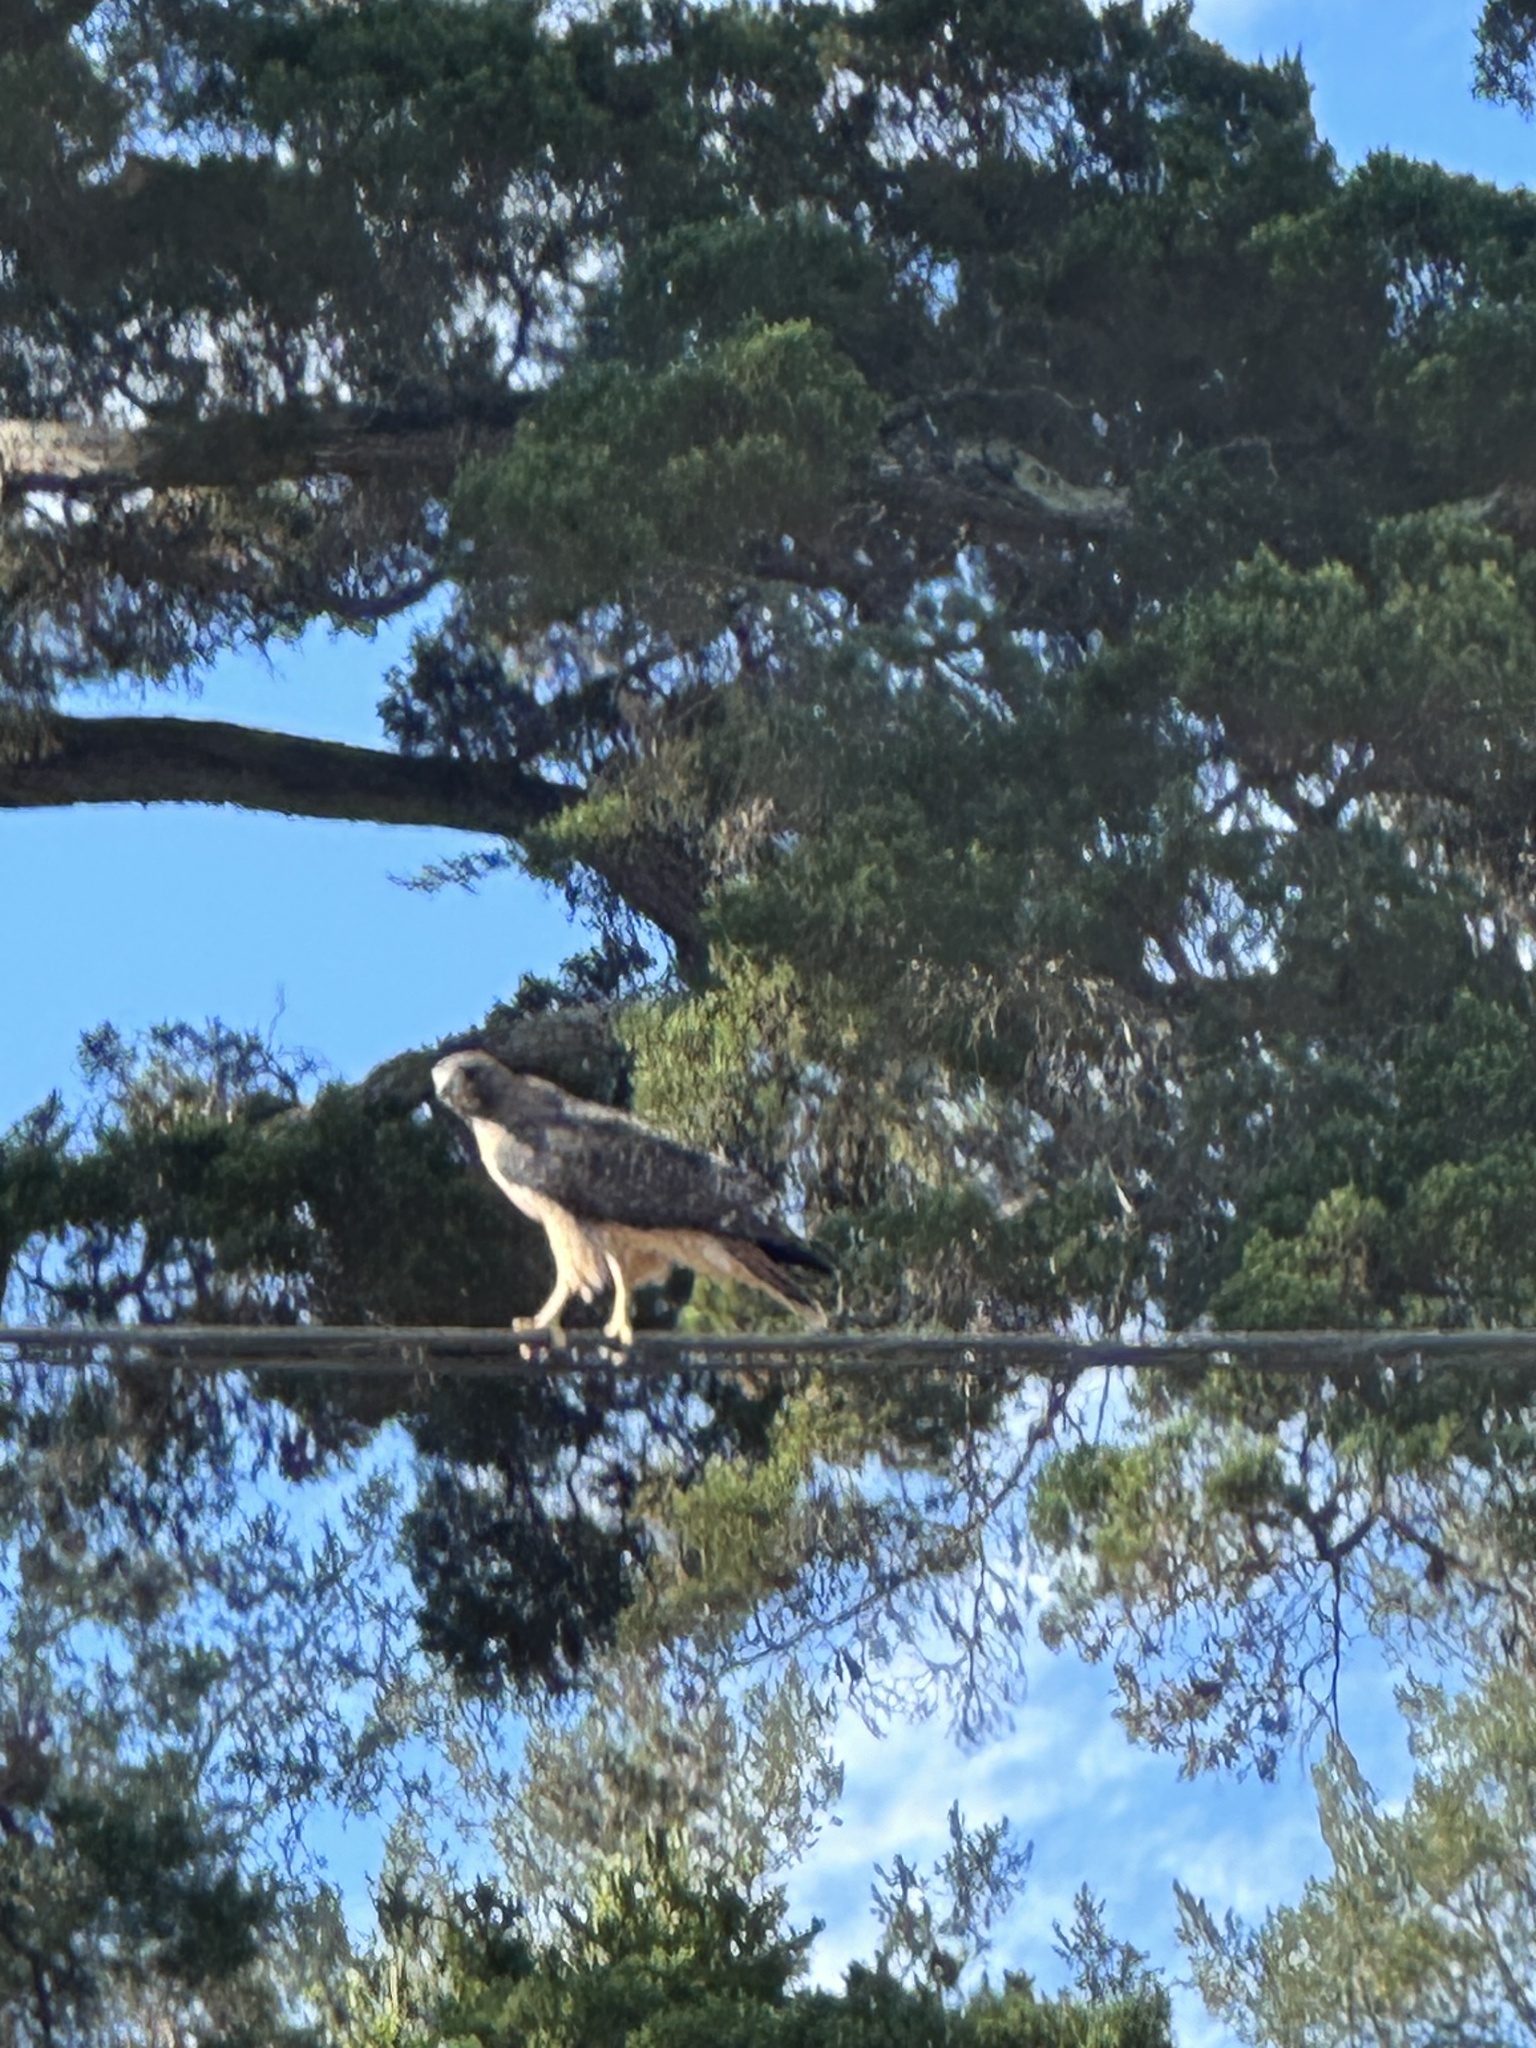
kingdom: Animalia
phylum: Chordata
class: Aves
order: Accipitriformes
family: Accipitridae
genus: Buteo
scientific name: Buteo jamaicensis
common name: Red-tailed hawk
